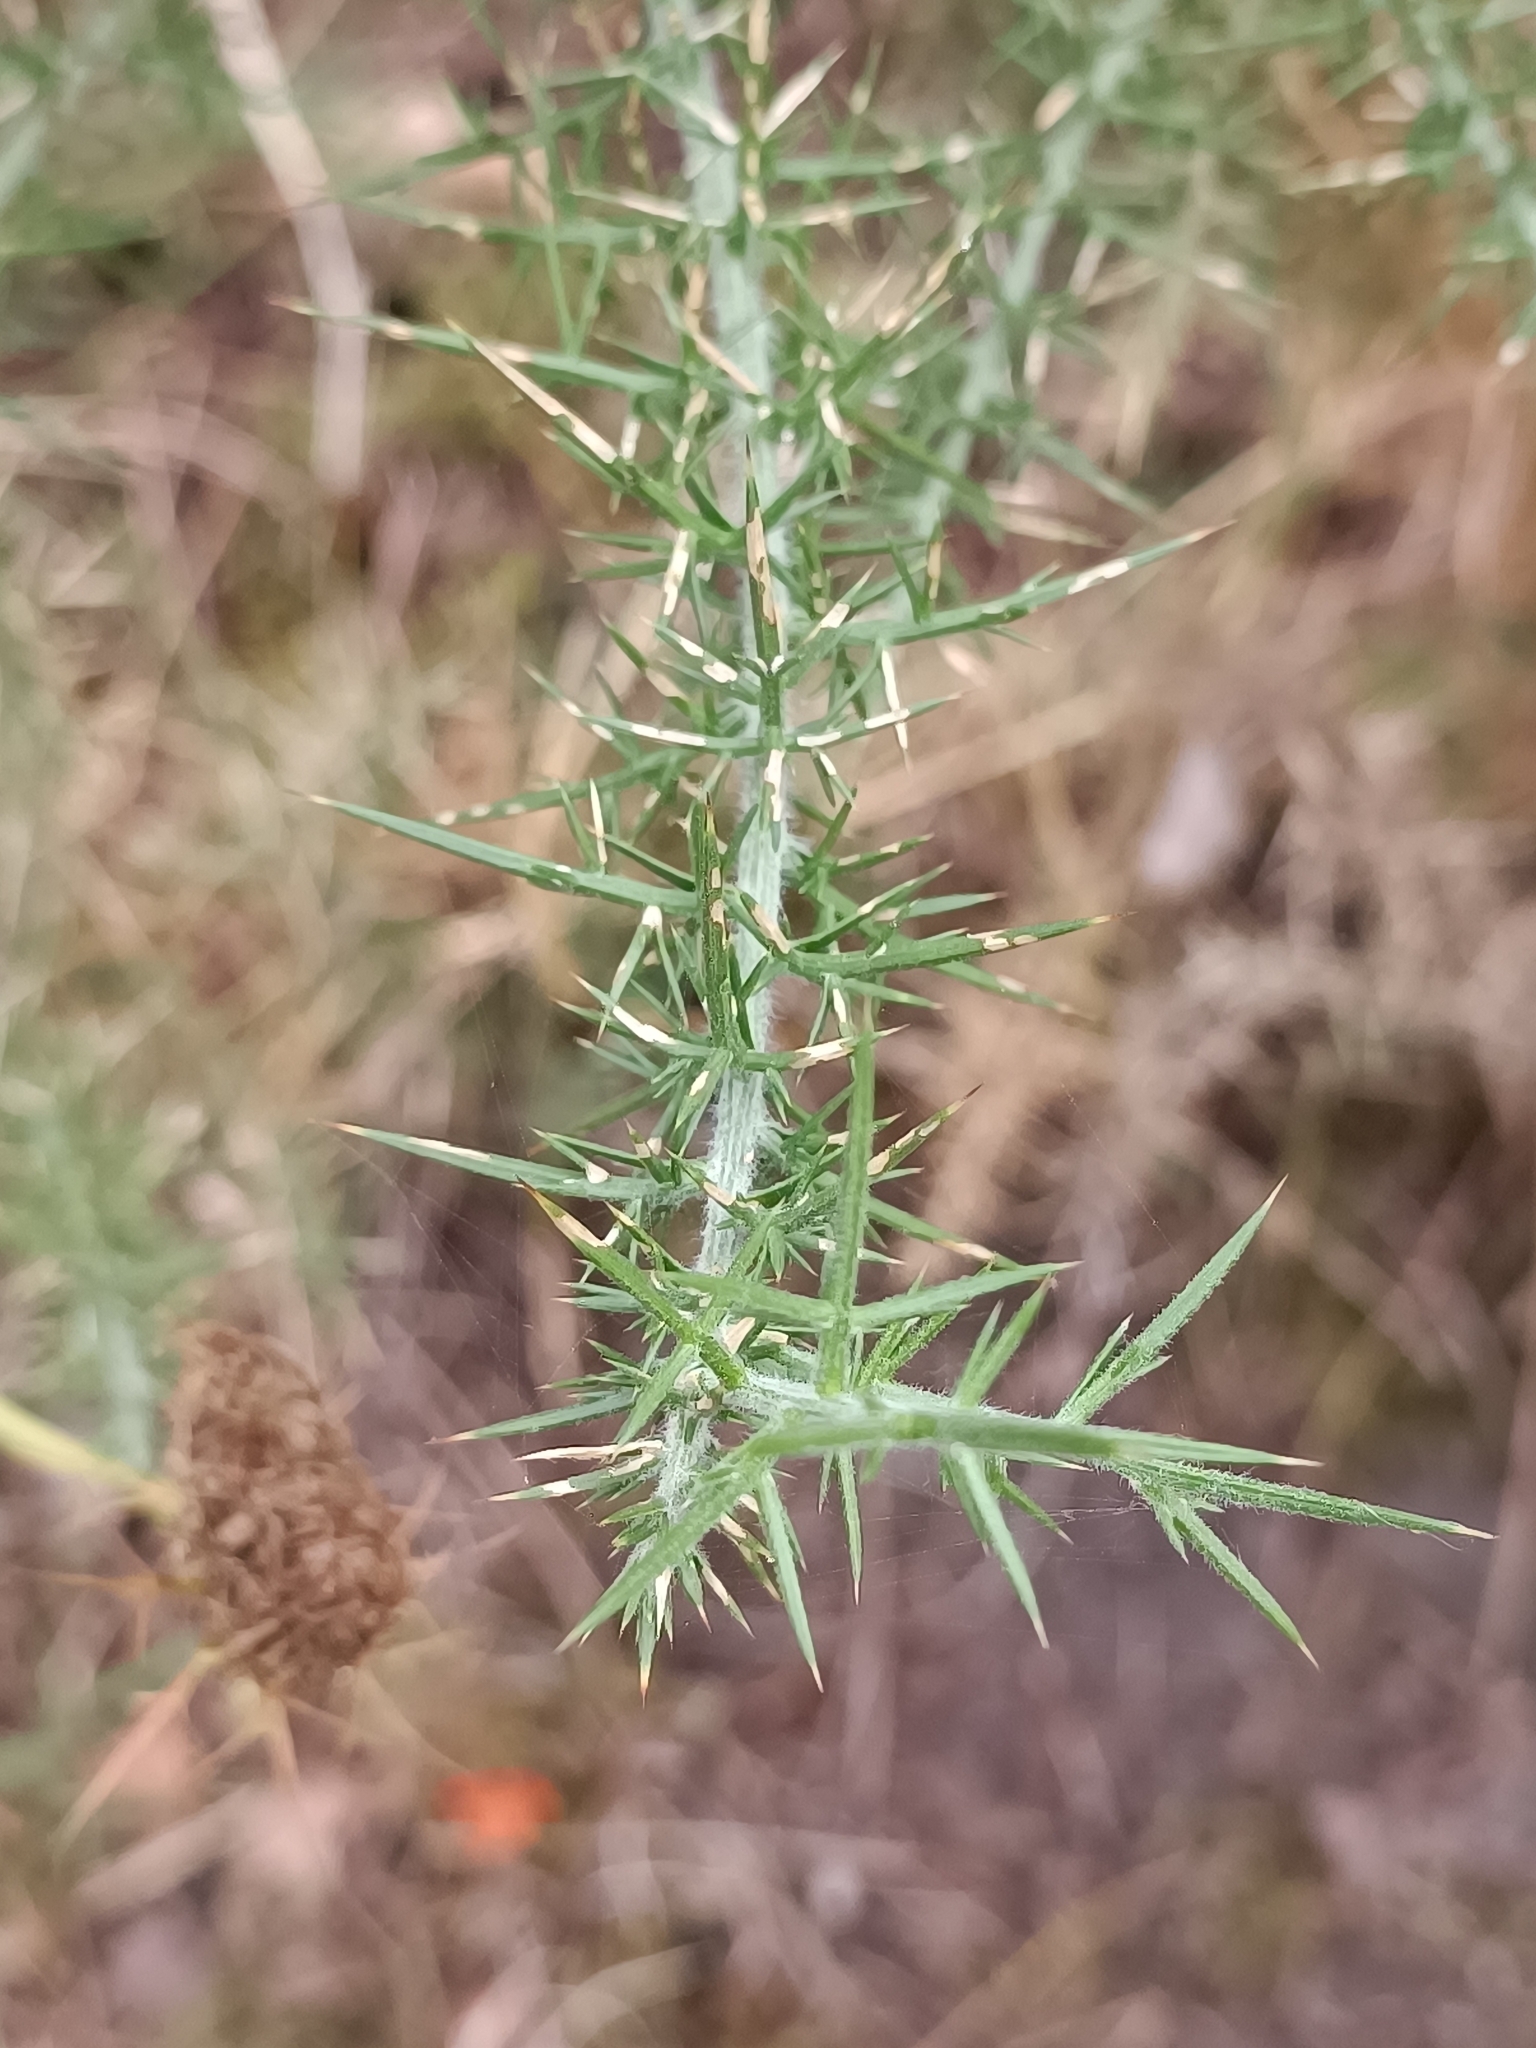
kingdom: Plantae
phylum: Tracheophyta
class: Magnoliopsida
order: Fabales
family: Fabaceae
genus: Ulex
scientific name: Ulex europaeus
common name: Common gorse
